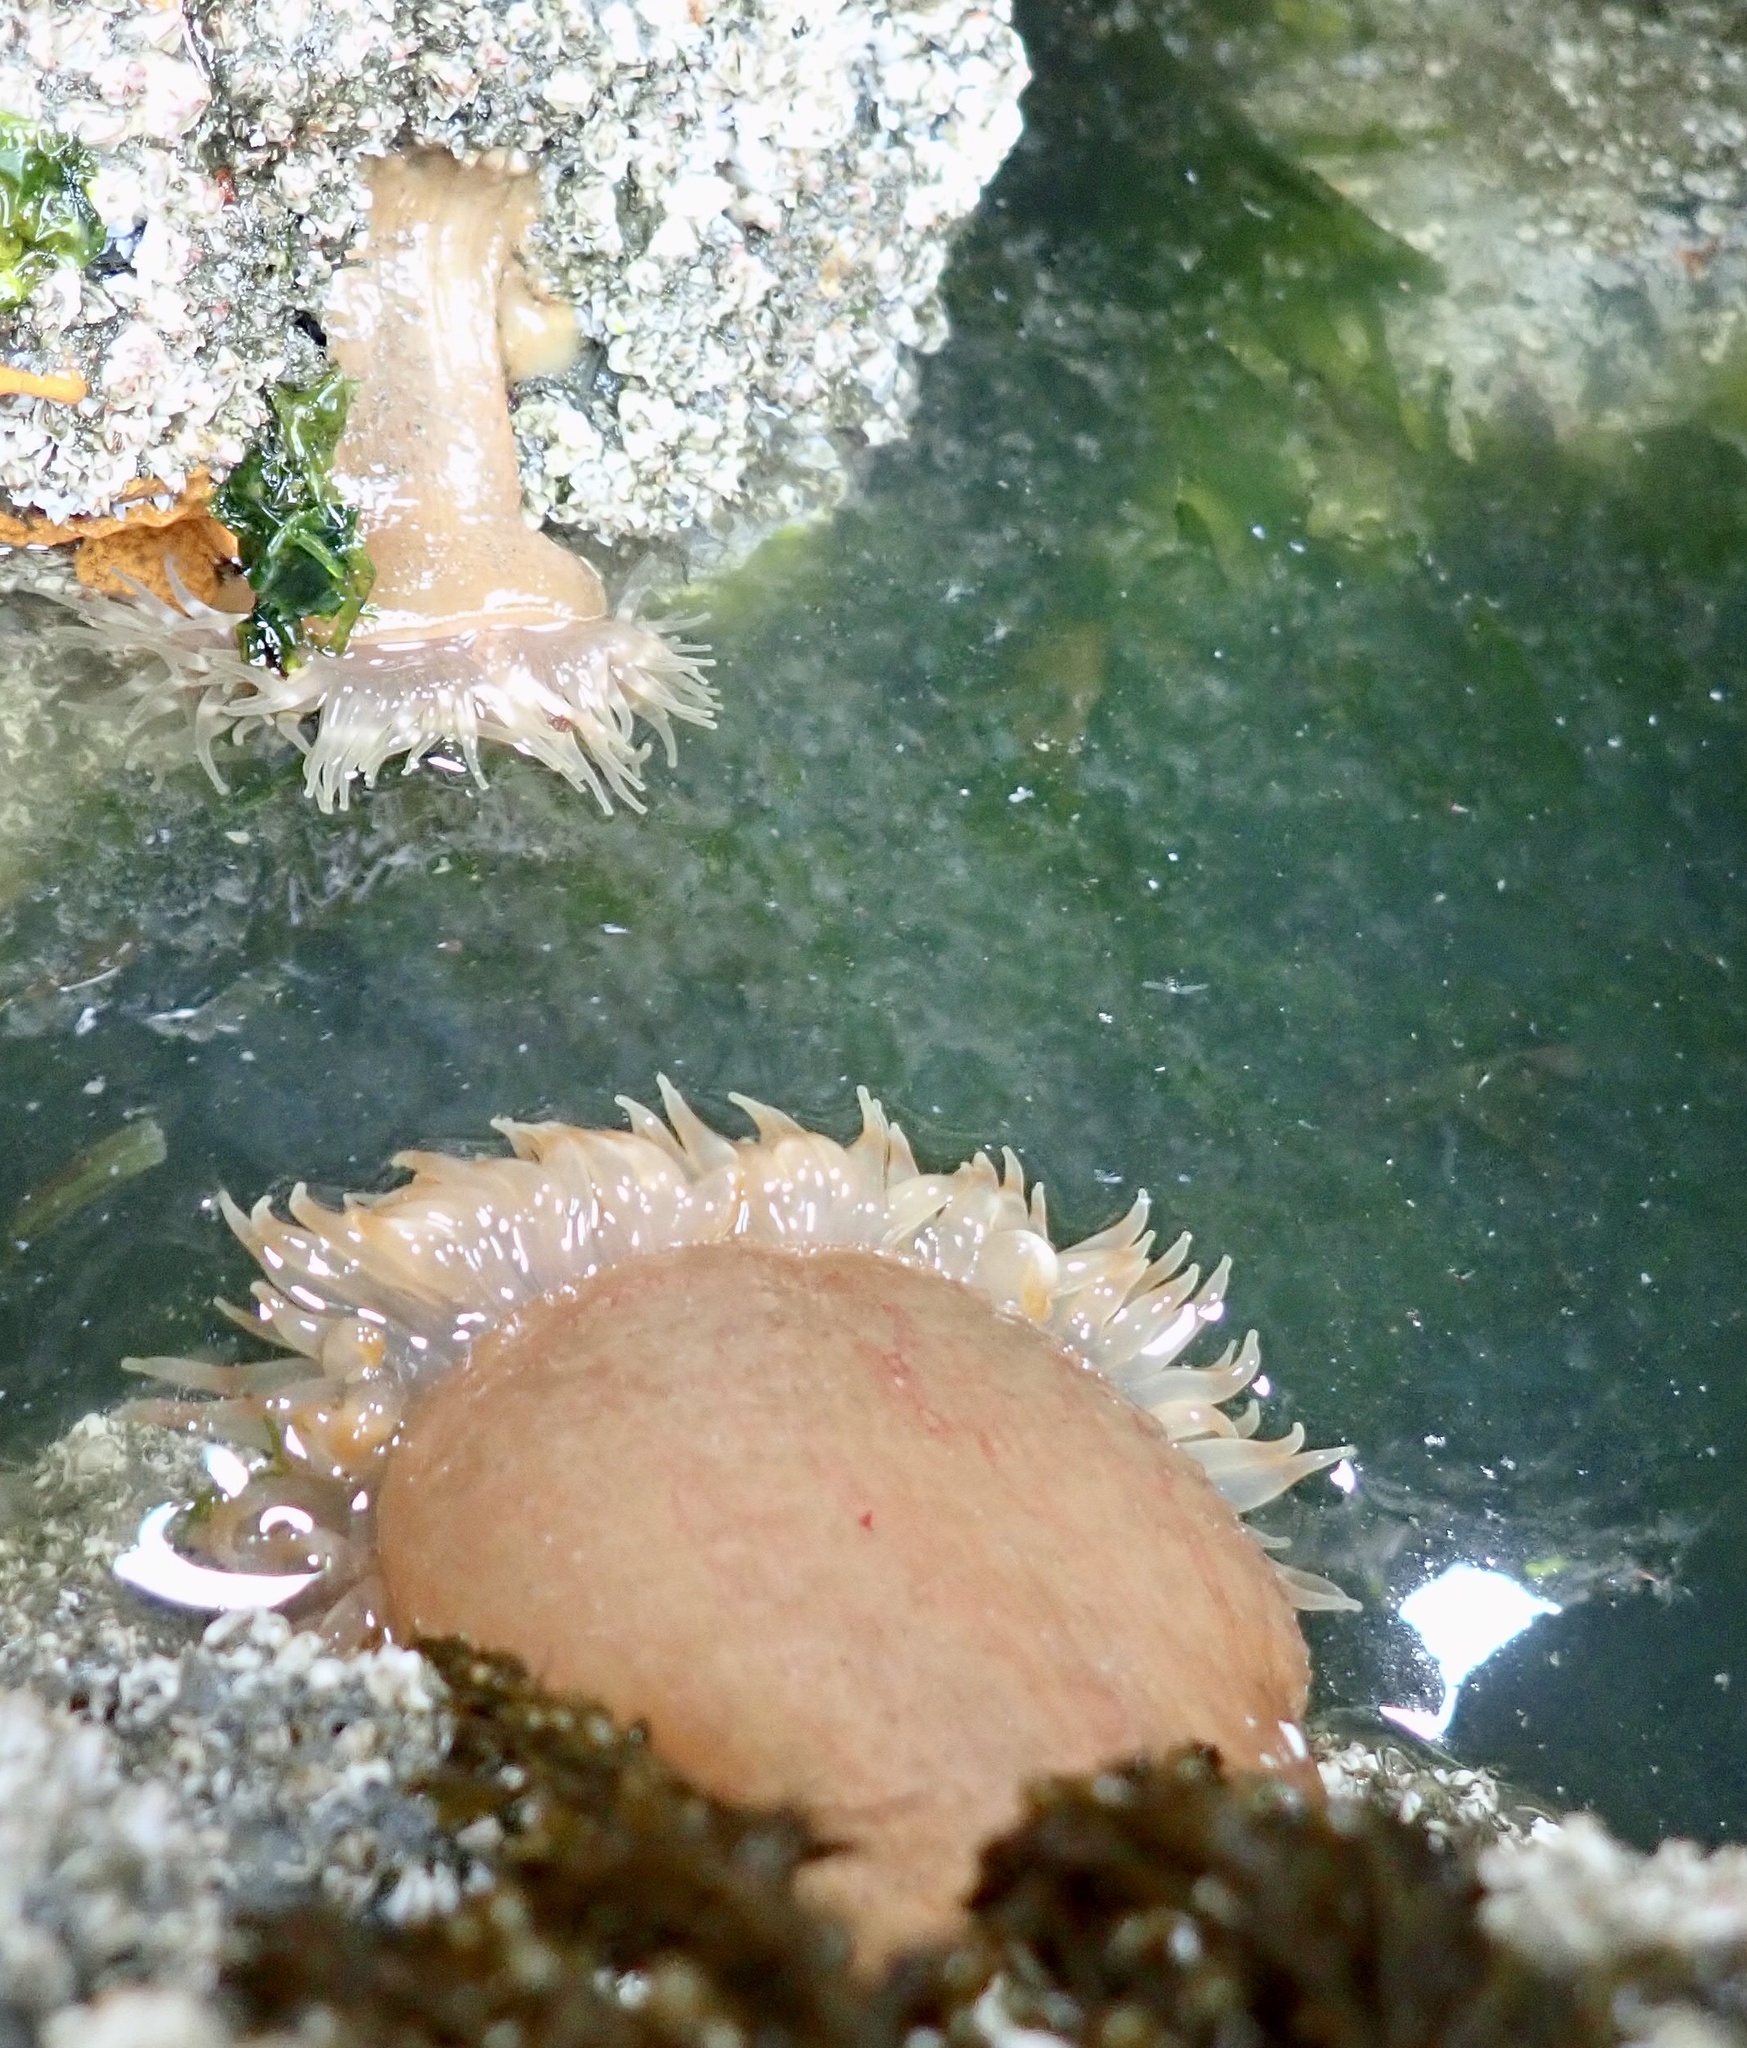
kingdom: Animalia
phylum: Cnidaria
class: Anthozoa
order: Actiniaria
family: Metridiidae
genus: Metridium
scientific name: Metridium senile
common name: Clonal plumose anemone
